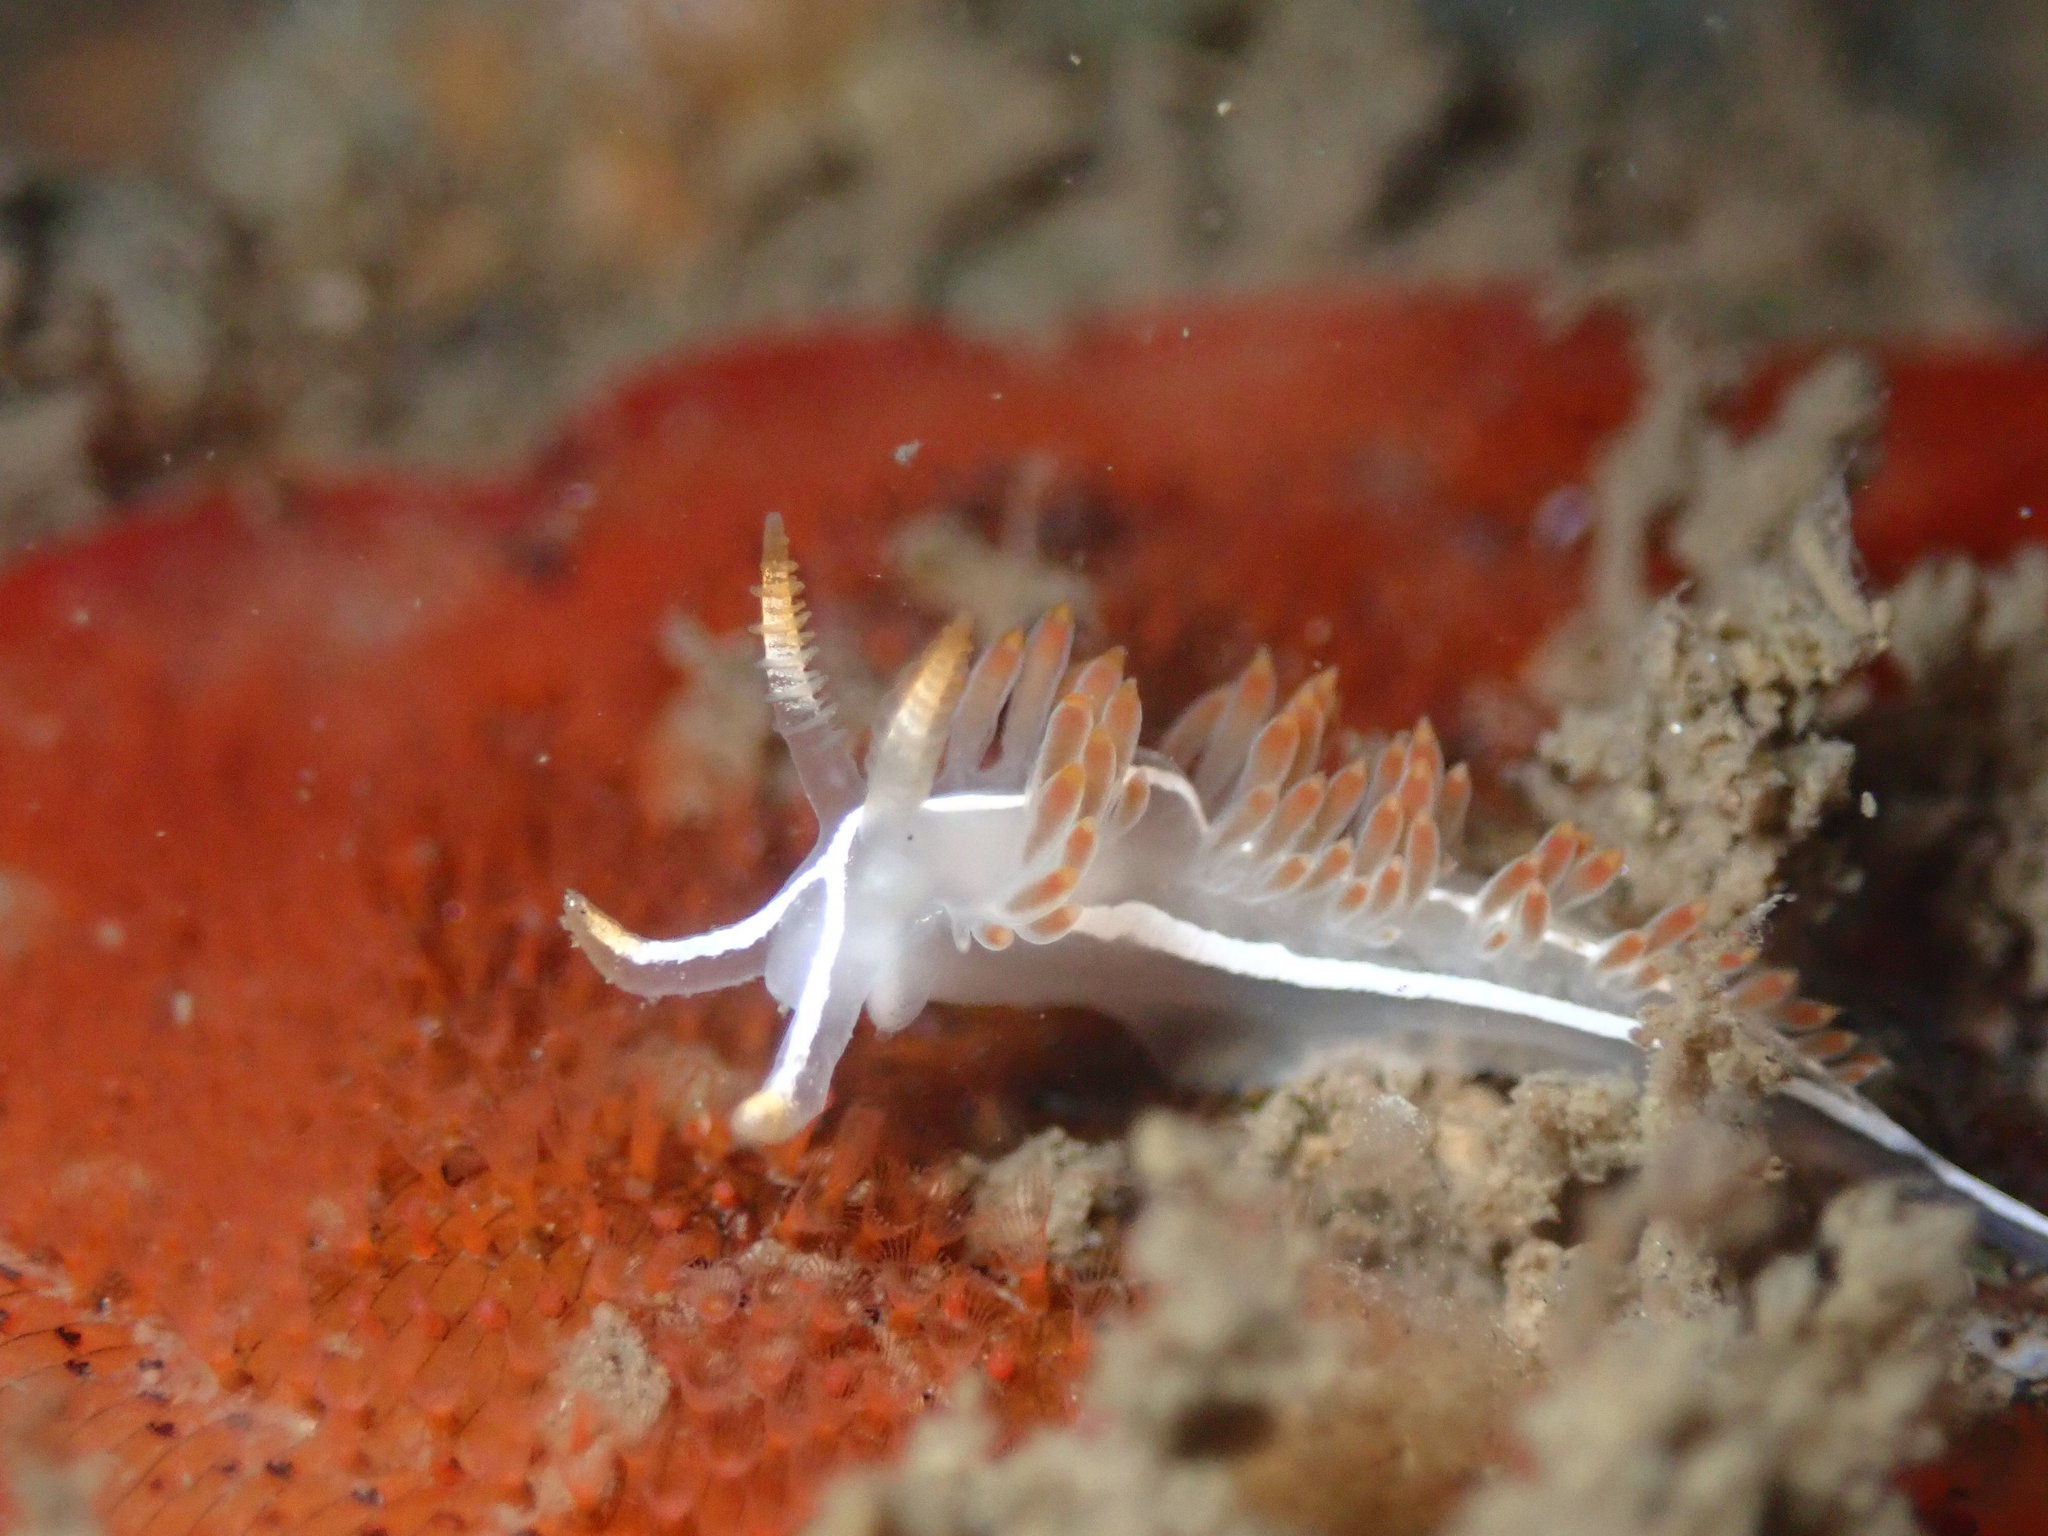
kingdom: Animalia
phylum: Mollusca
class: Gastropoda
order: Nudibranchia
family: Coryphellidae
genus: Coryphella
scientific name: Coryphella trilineata
